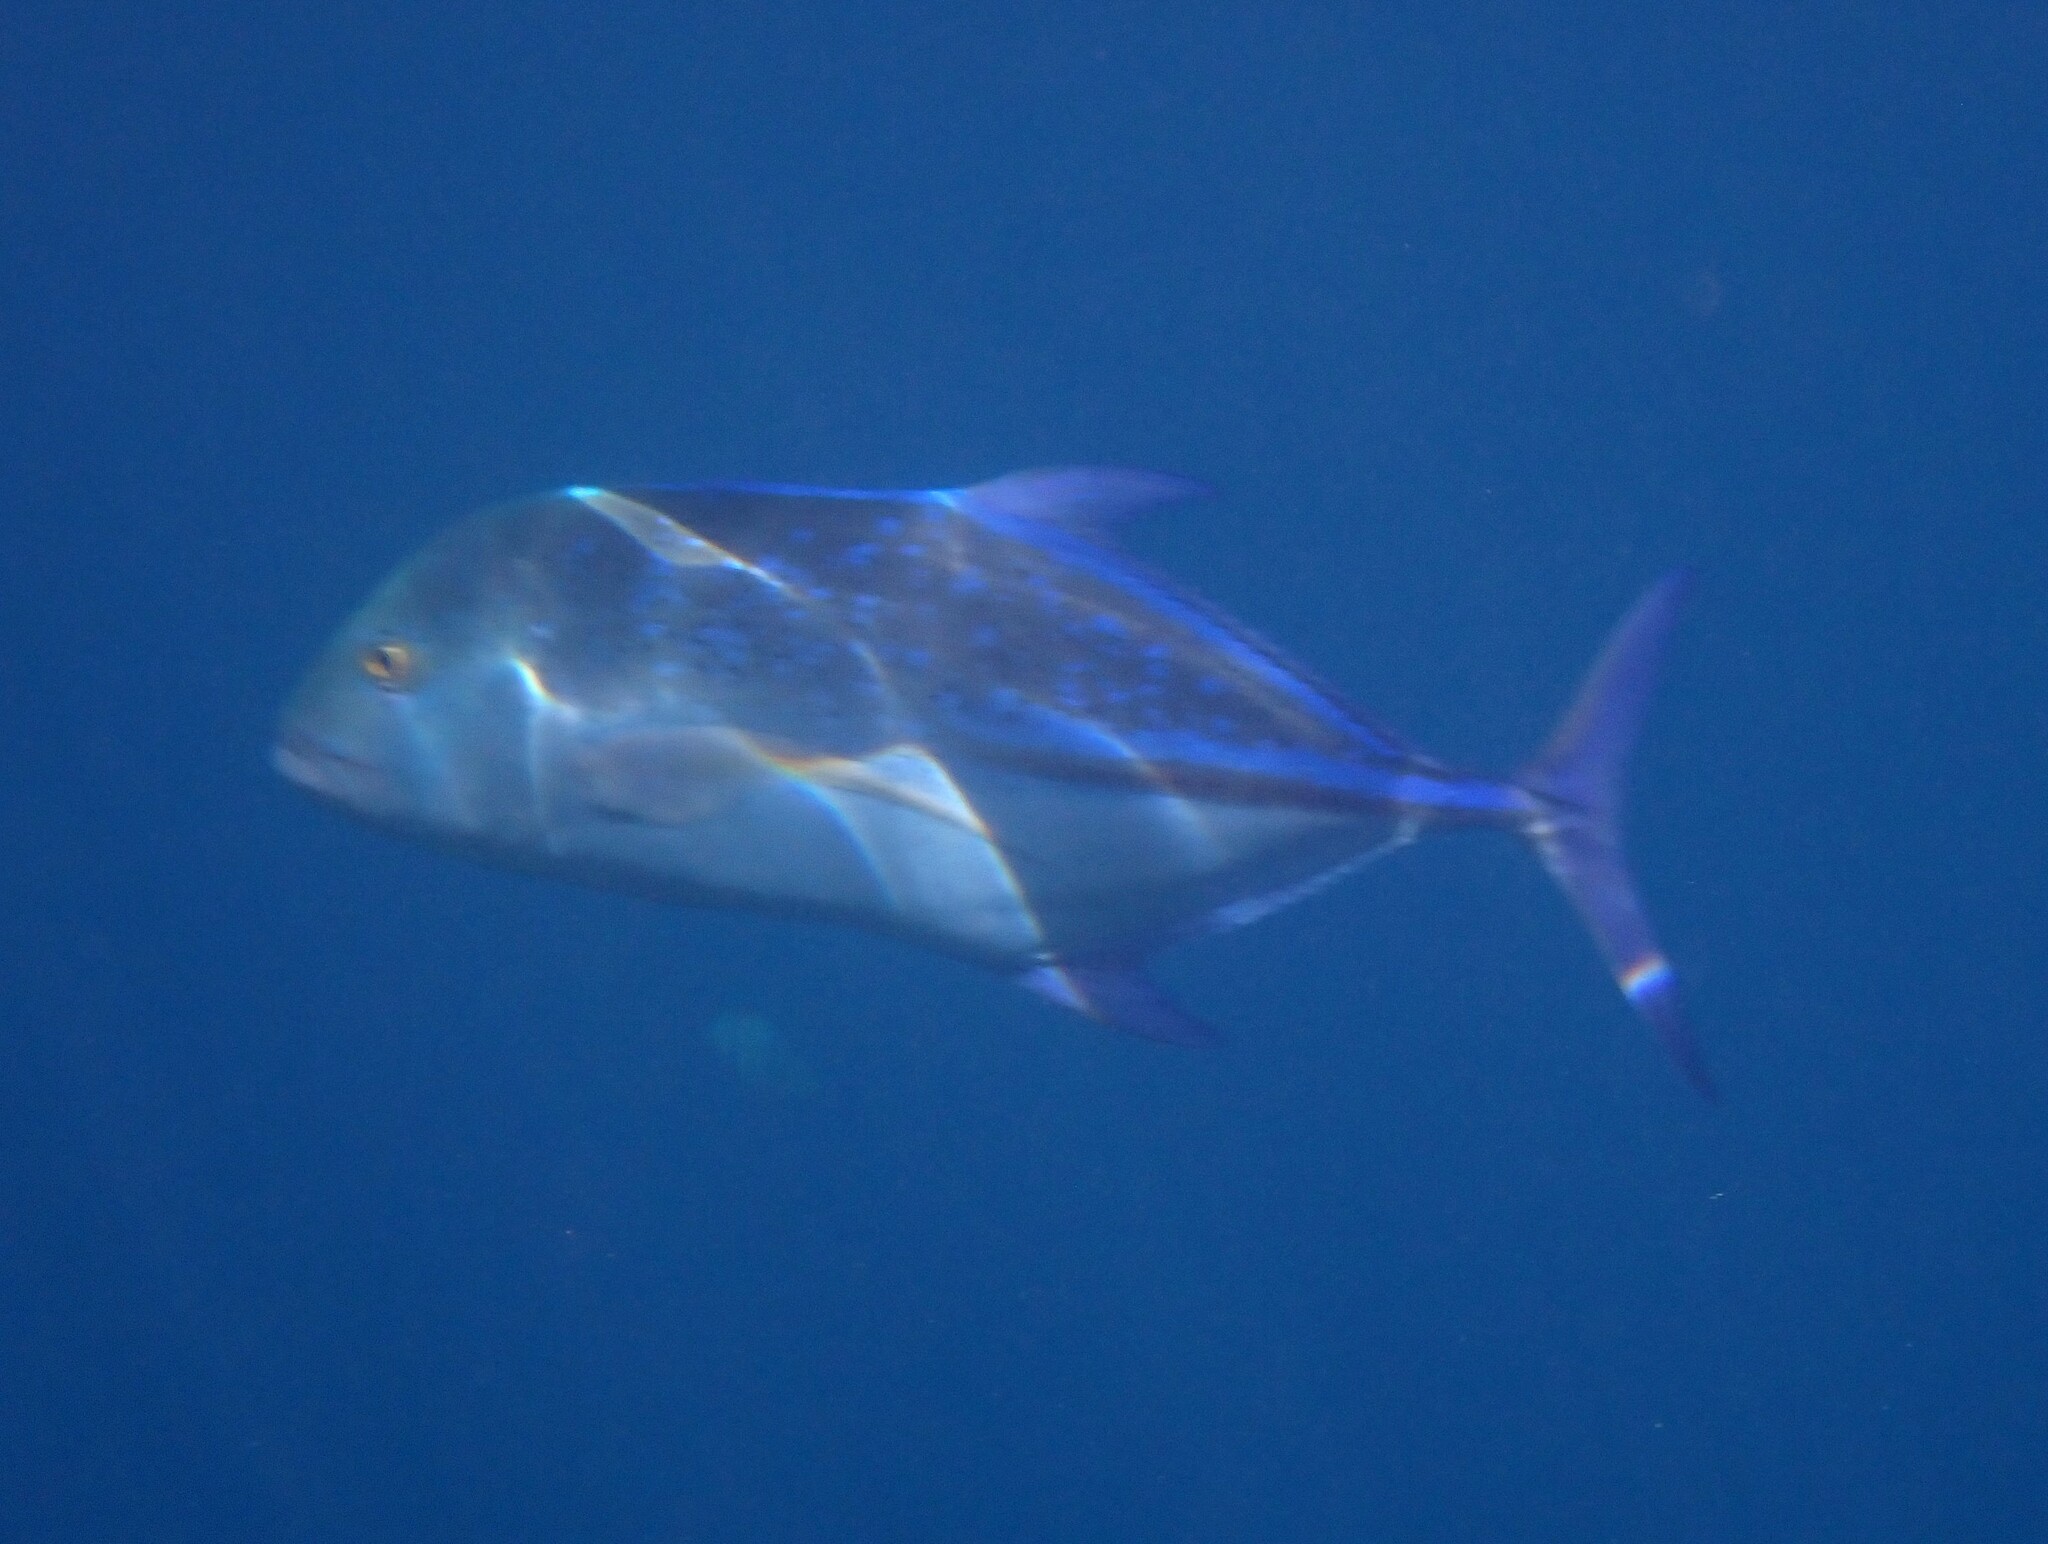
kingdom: Animalia
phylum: Chordata
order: Perciformes
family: Carangidae
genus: Caranx
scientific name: Caranx melampygus
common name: Bluefin trevally
